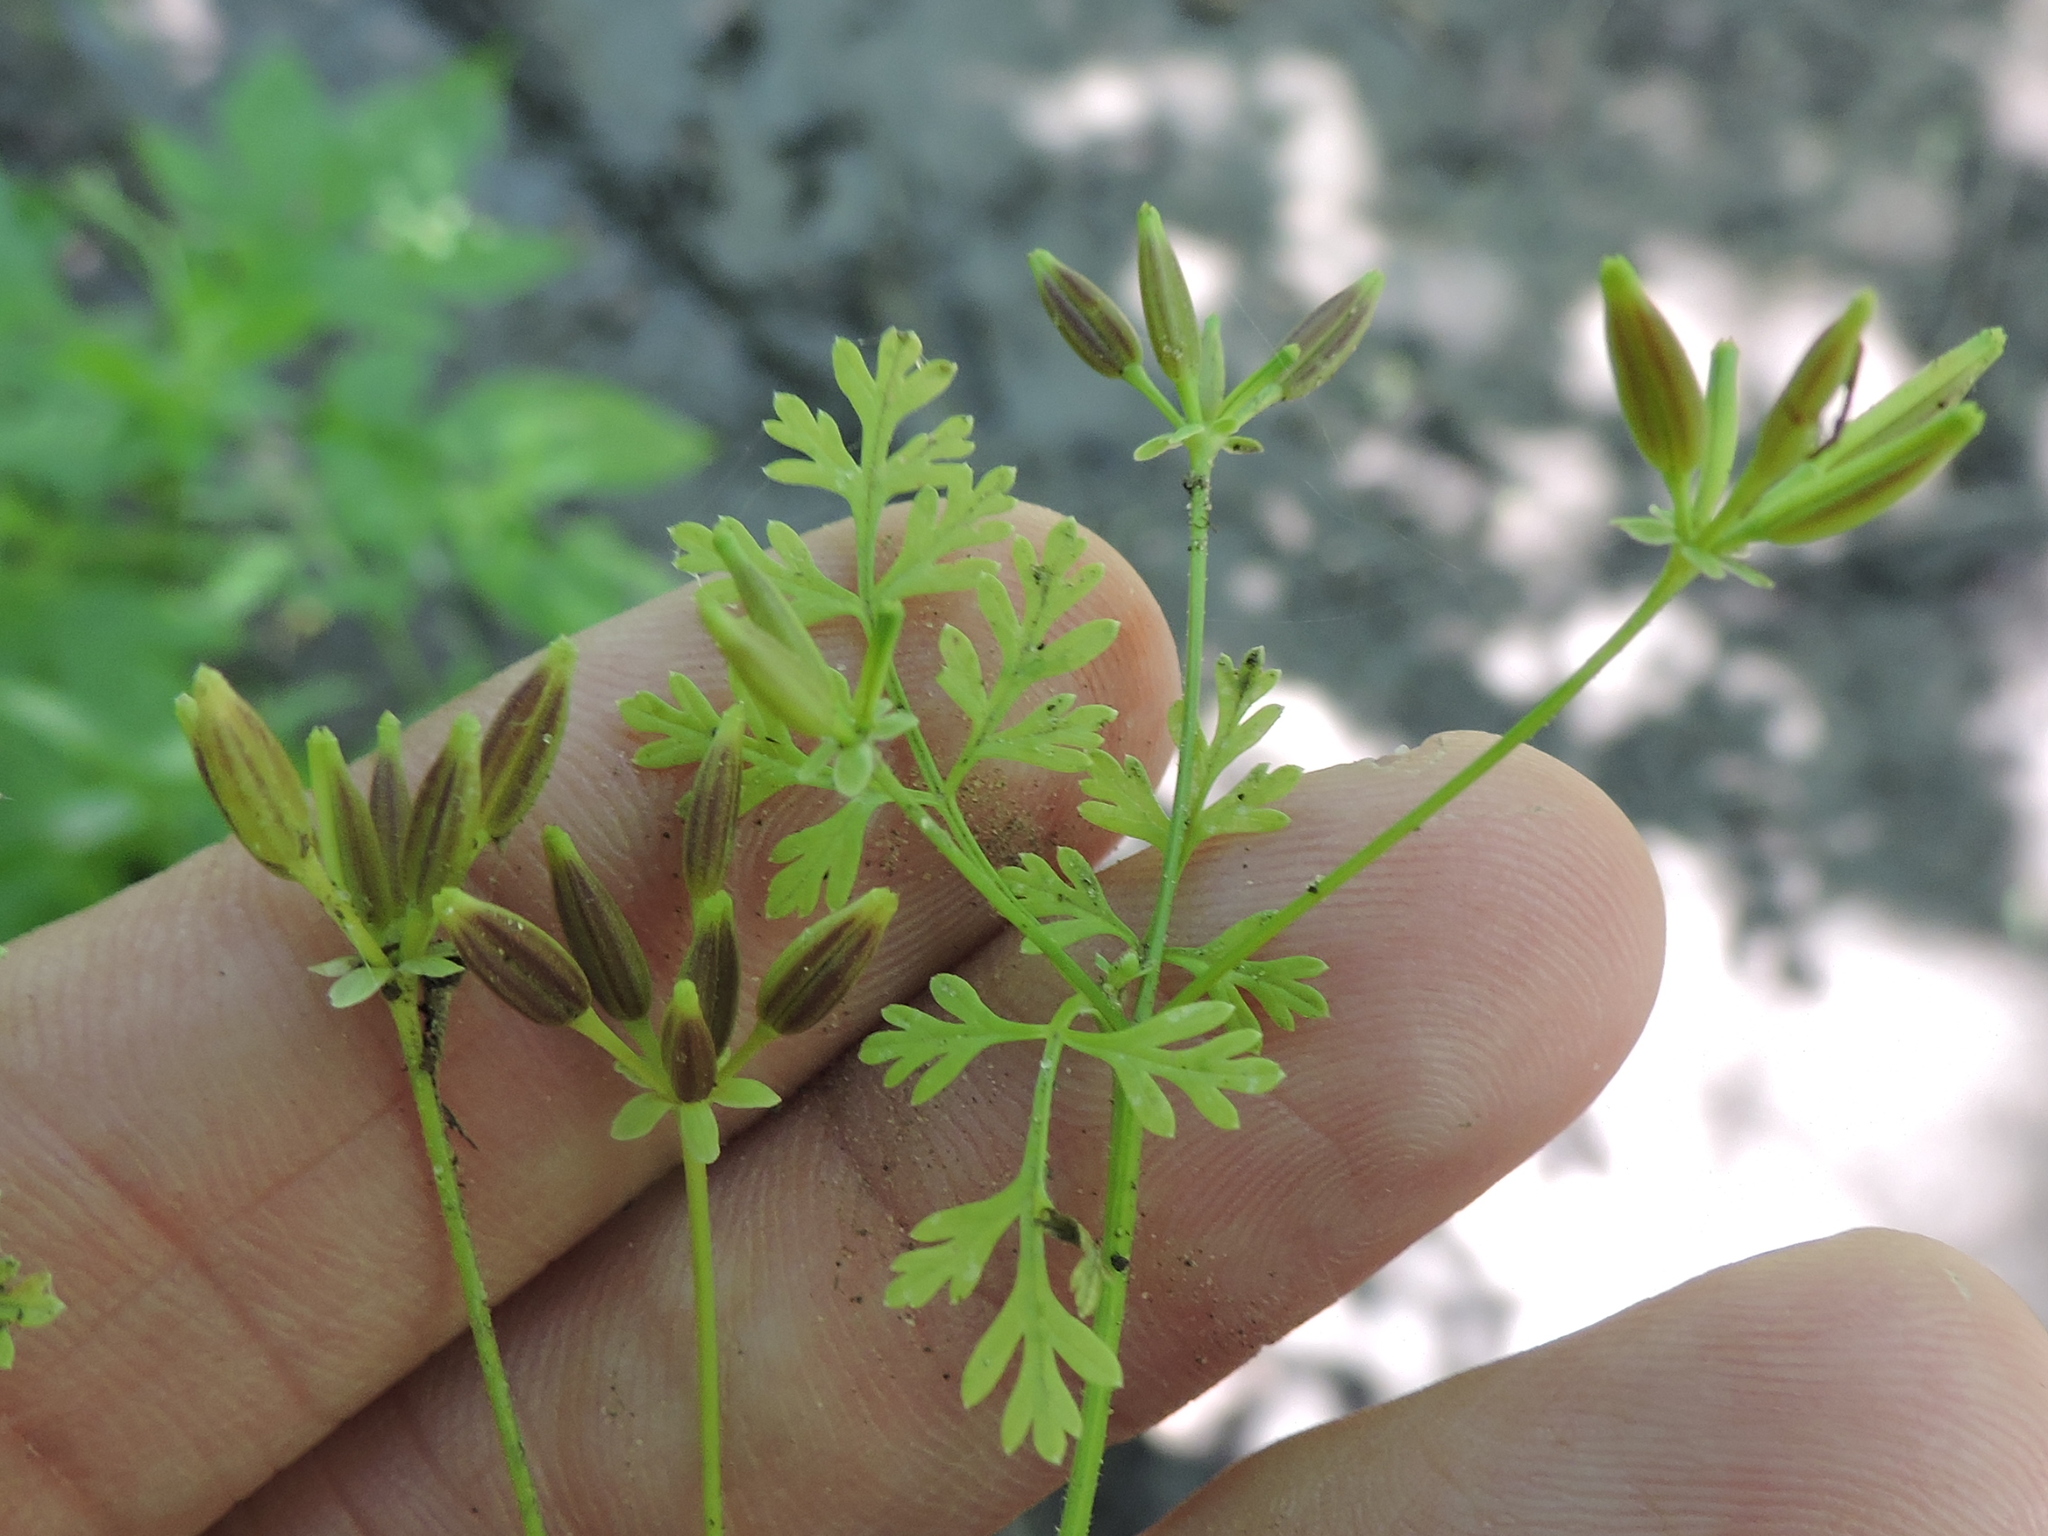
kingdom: Plantae
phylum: Tracheophyta
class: Magnoliopsida
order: Apiales
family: Apiaceae
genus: Chaerophyllum
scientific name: Chaerophyllum tainturieri
